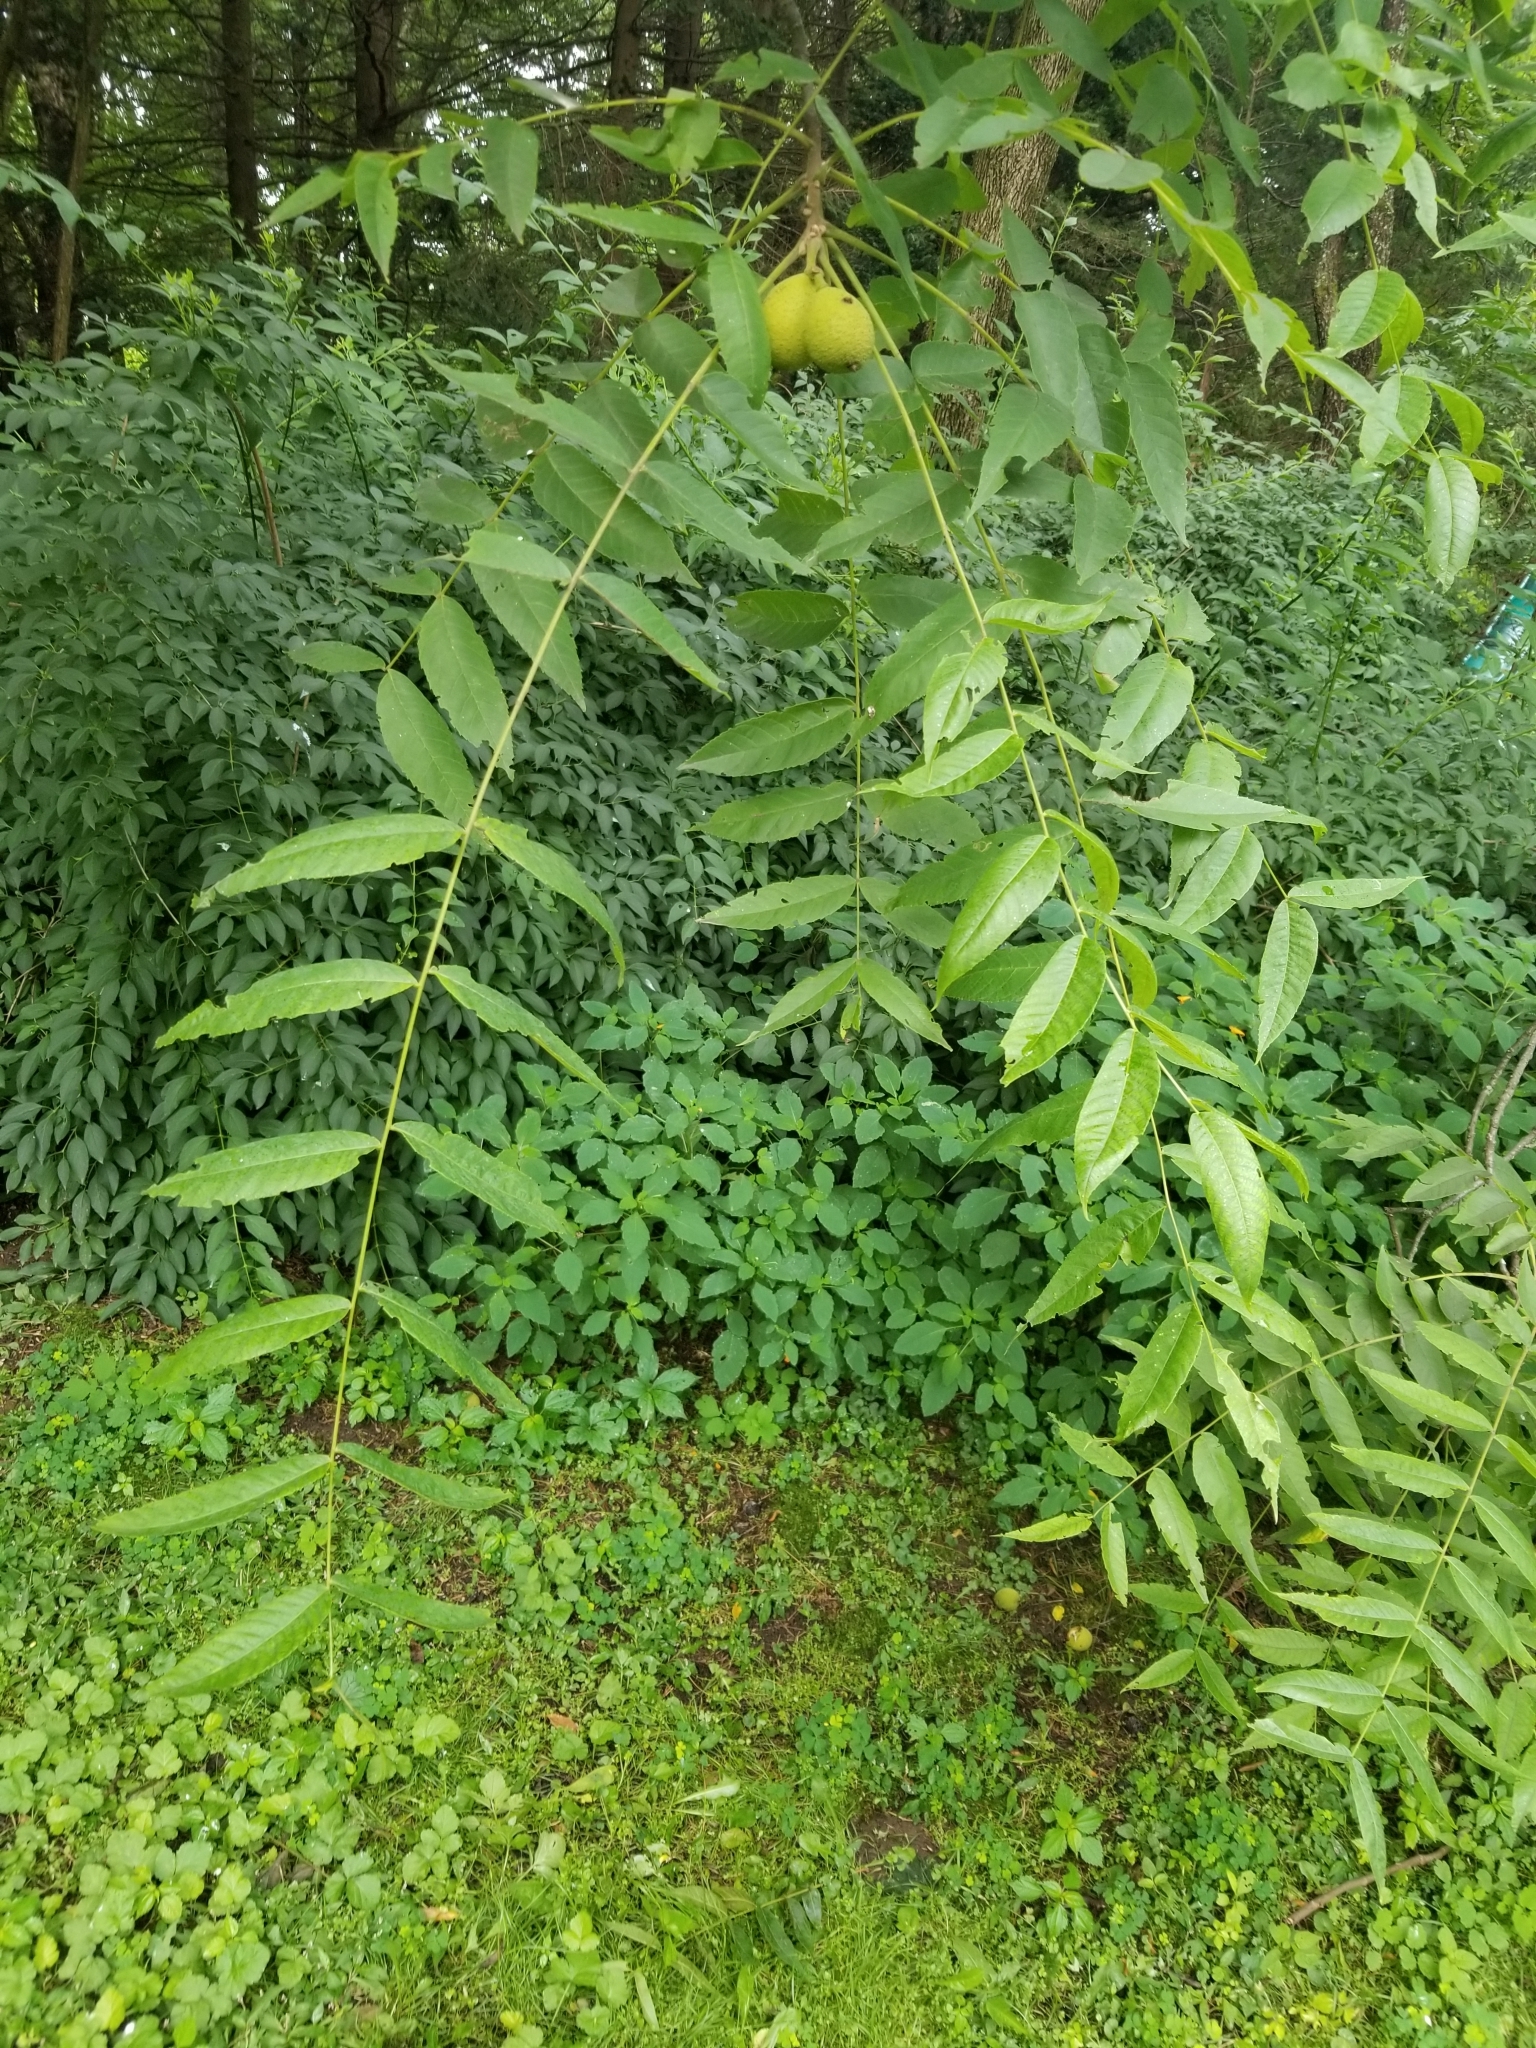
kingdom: Plantae
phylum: Tracheophyta
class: Magnoliopsida
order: Fagales
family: Juglandaceae
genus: Juglans
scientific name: Juglans nigra
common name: Black walnut
